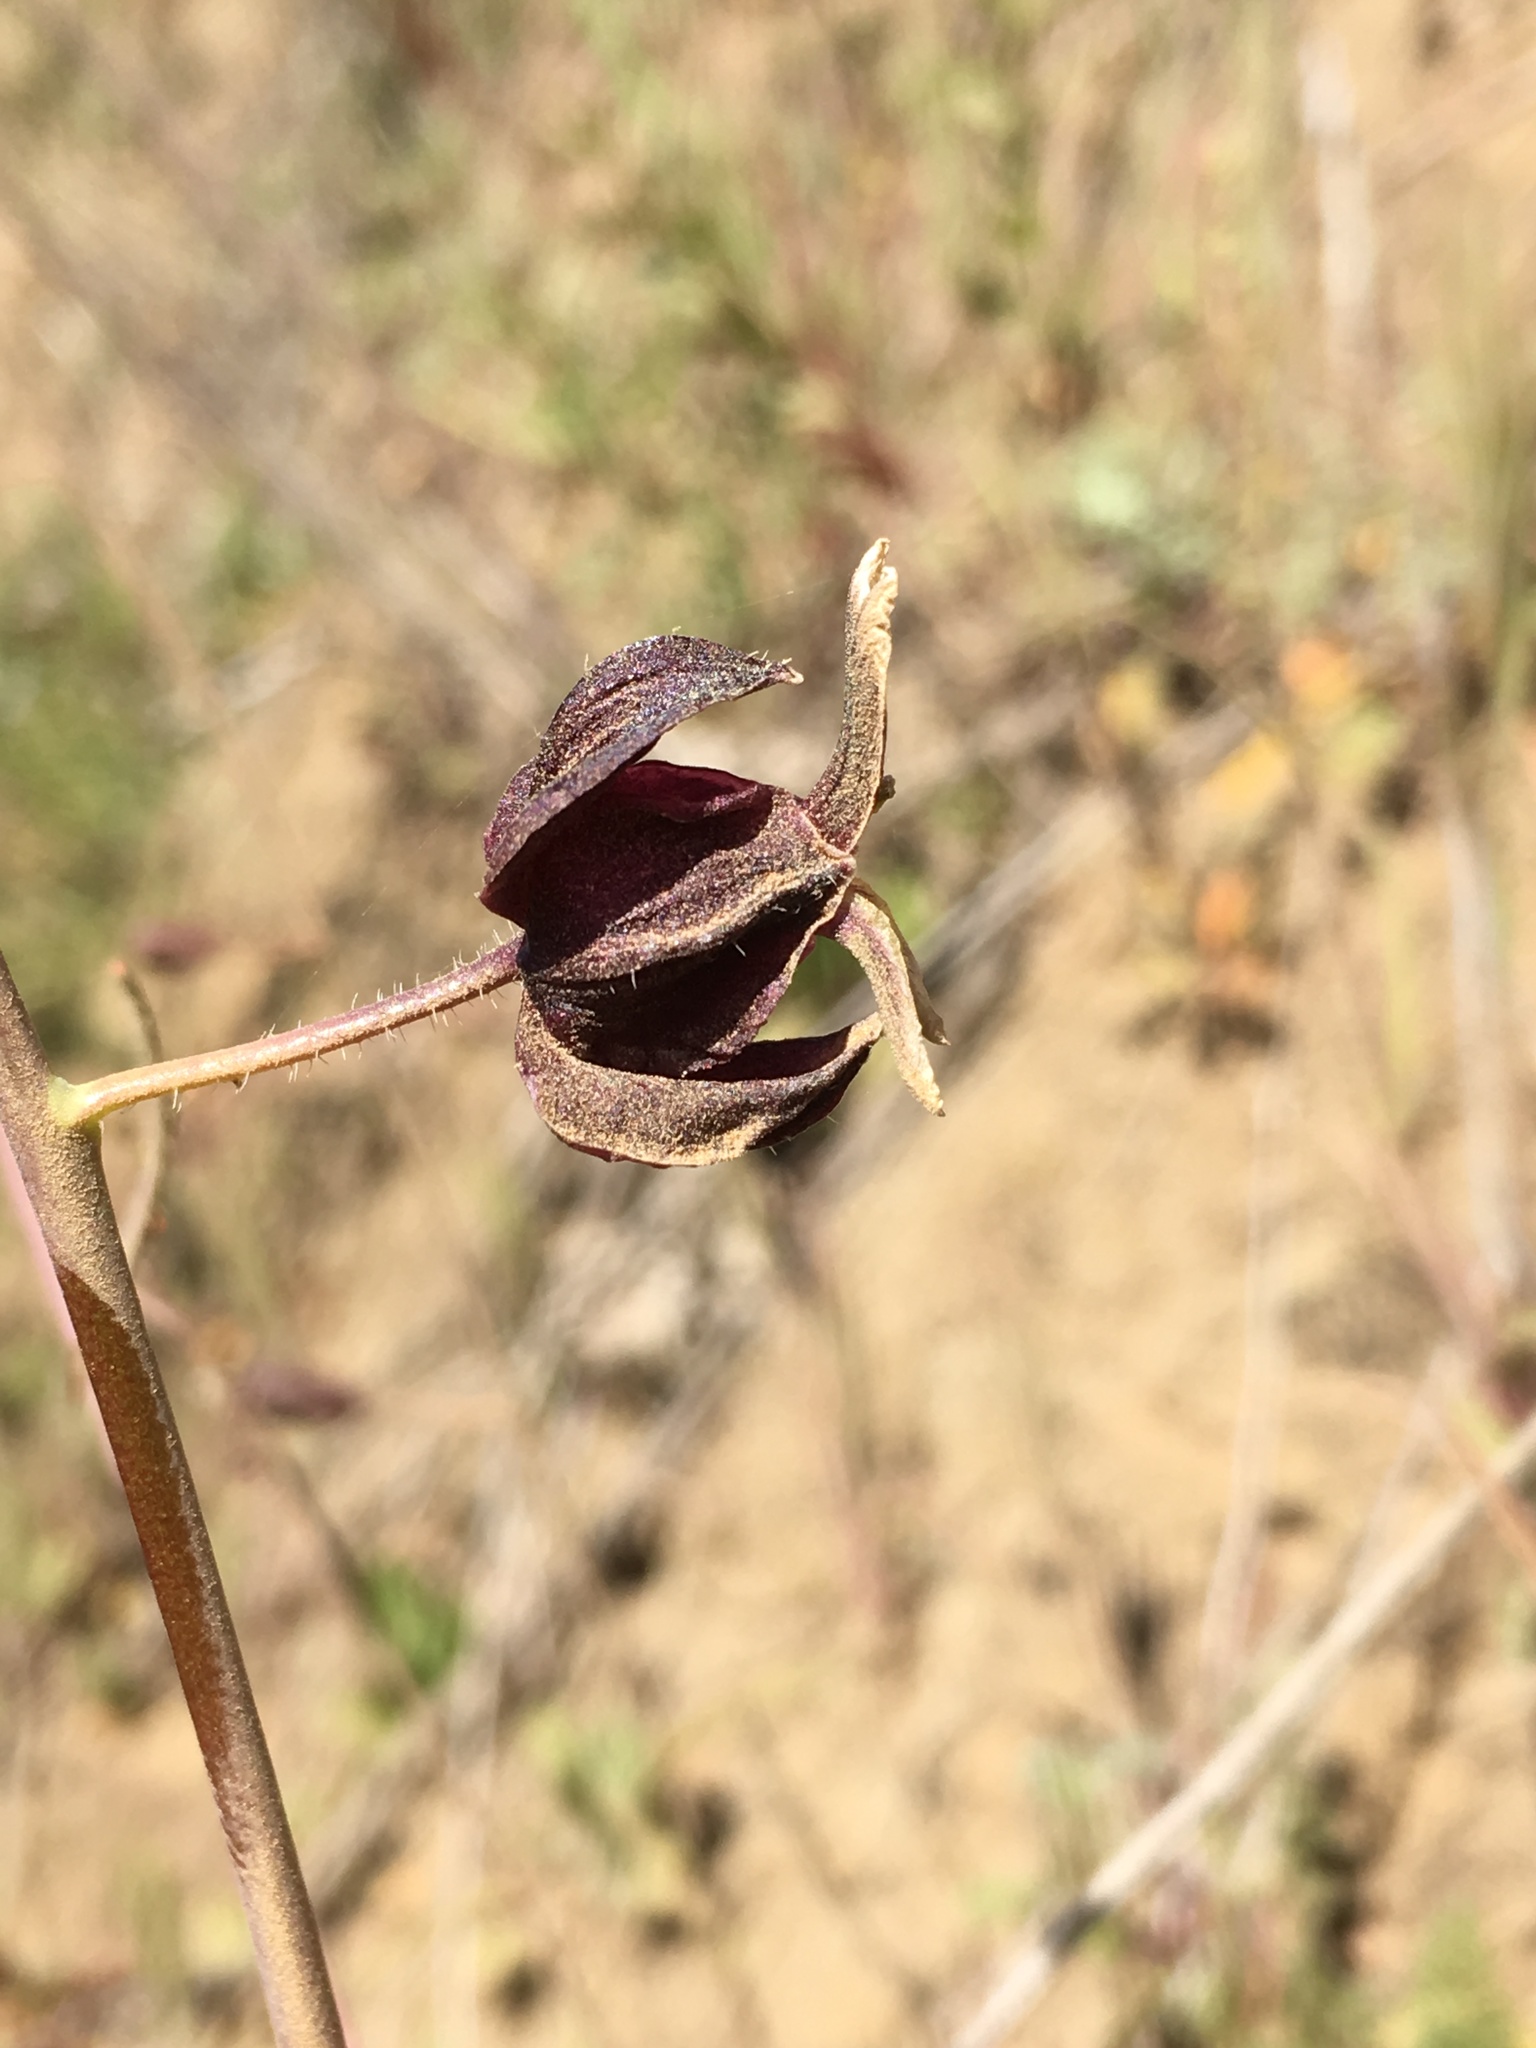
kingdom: Plantae
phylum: Tracheophyta
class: Magnoliopsida
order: Brassicales
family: Brassicaceae
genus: Streptanthus
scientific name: Streptanthus glandulosus
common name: Jewel-flower
